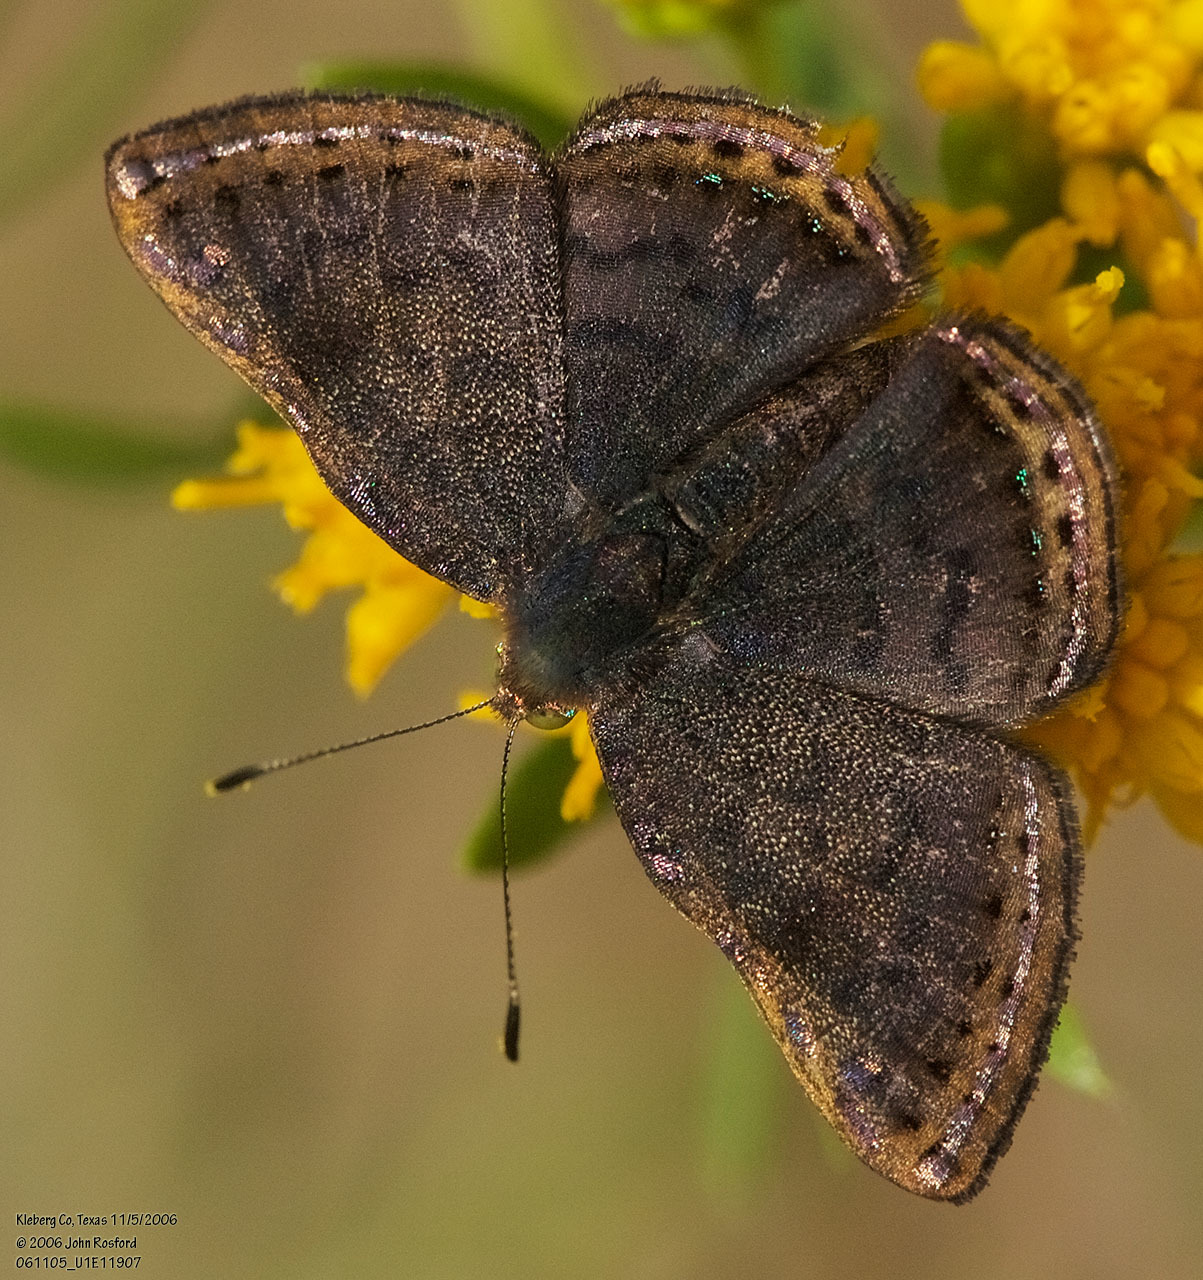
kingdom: Animalia
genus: Caria
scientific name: Caria ino
